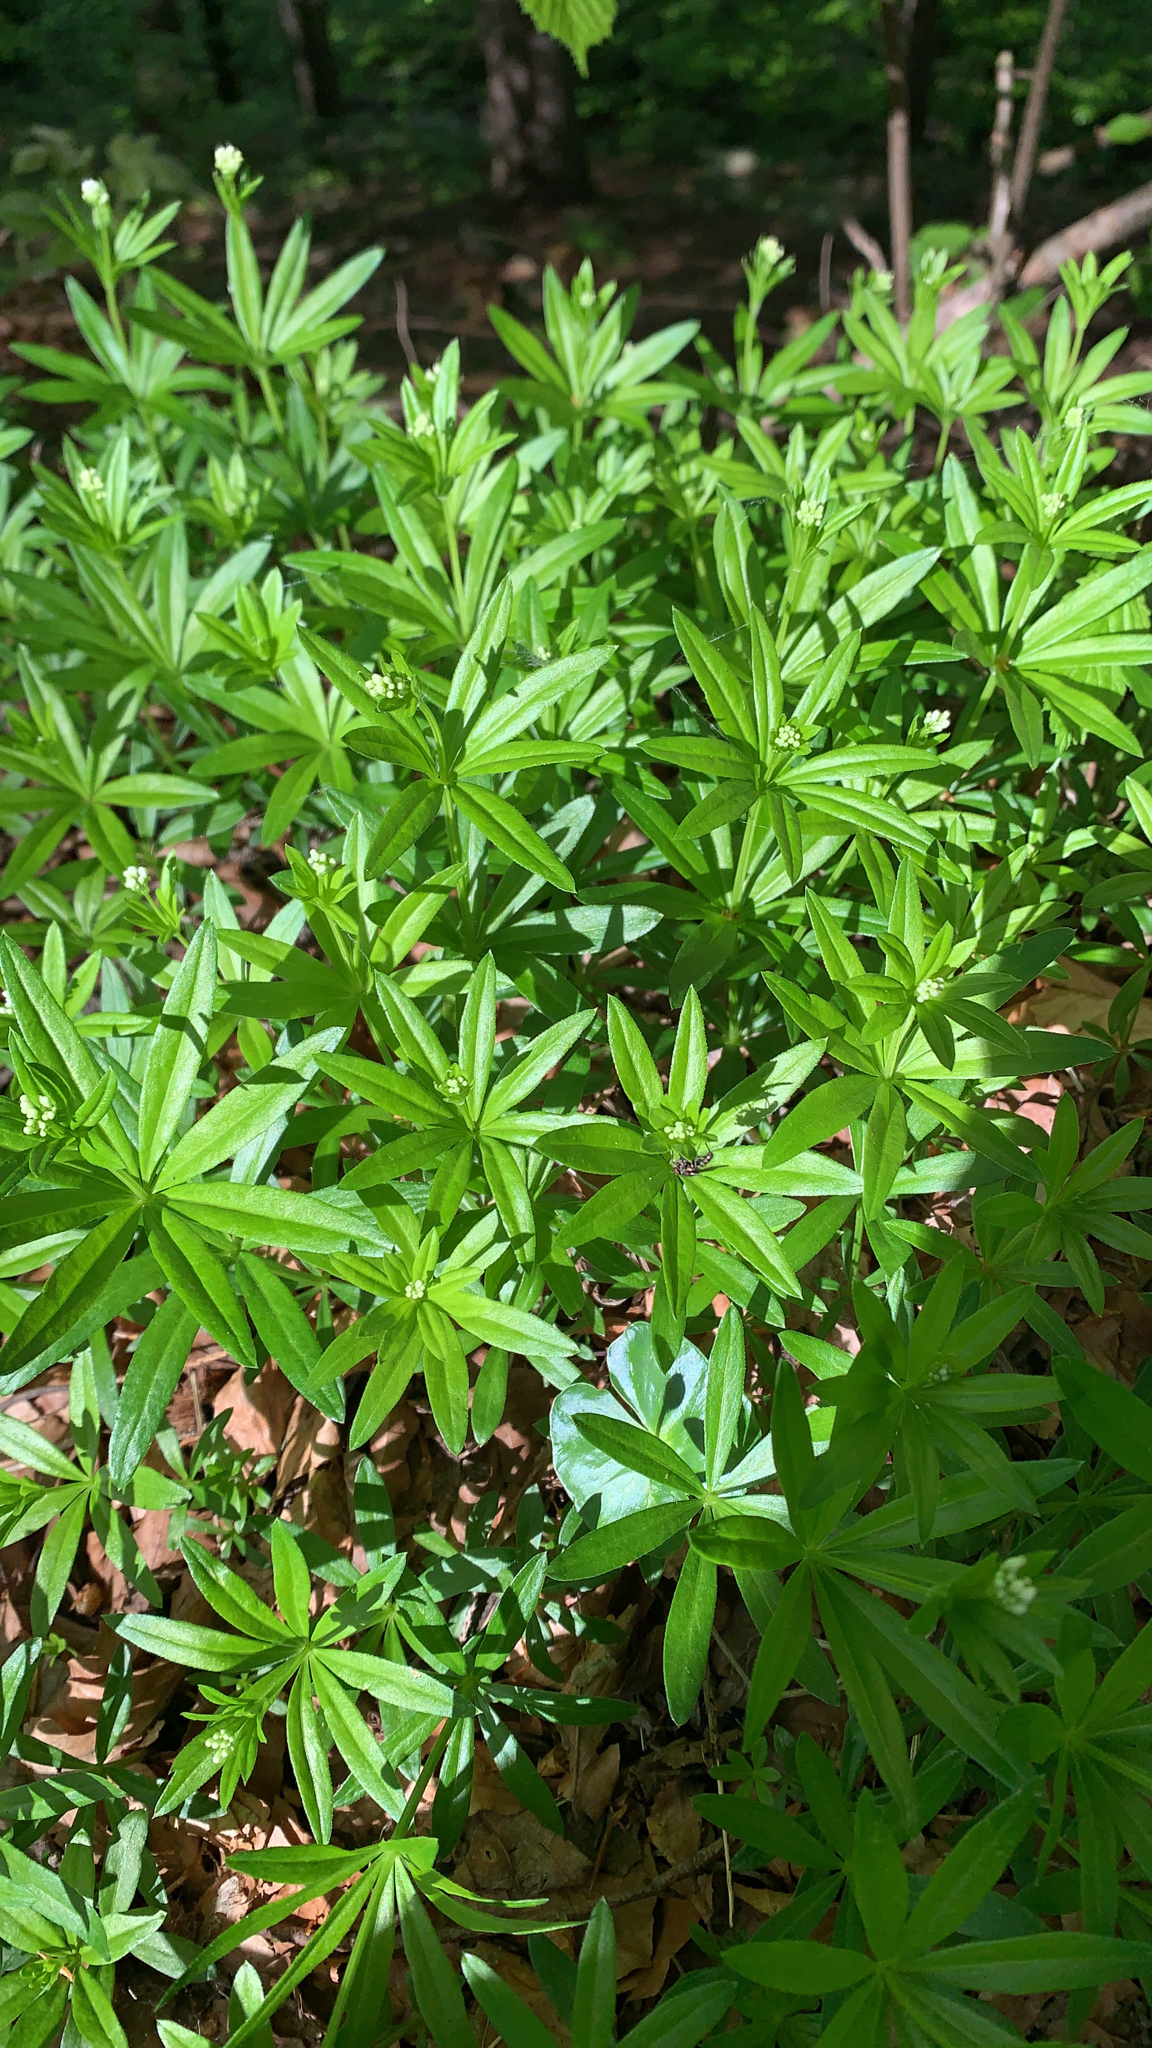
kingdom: Plantae
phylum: Tracheophyta
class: Magnoliopsida
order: Gentianales
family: Rubiaceae
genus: Galium
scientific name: Galium odoratum
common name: Sweet woodruff
